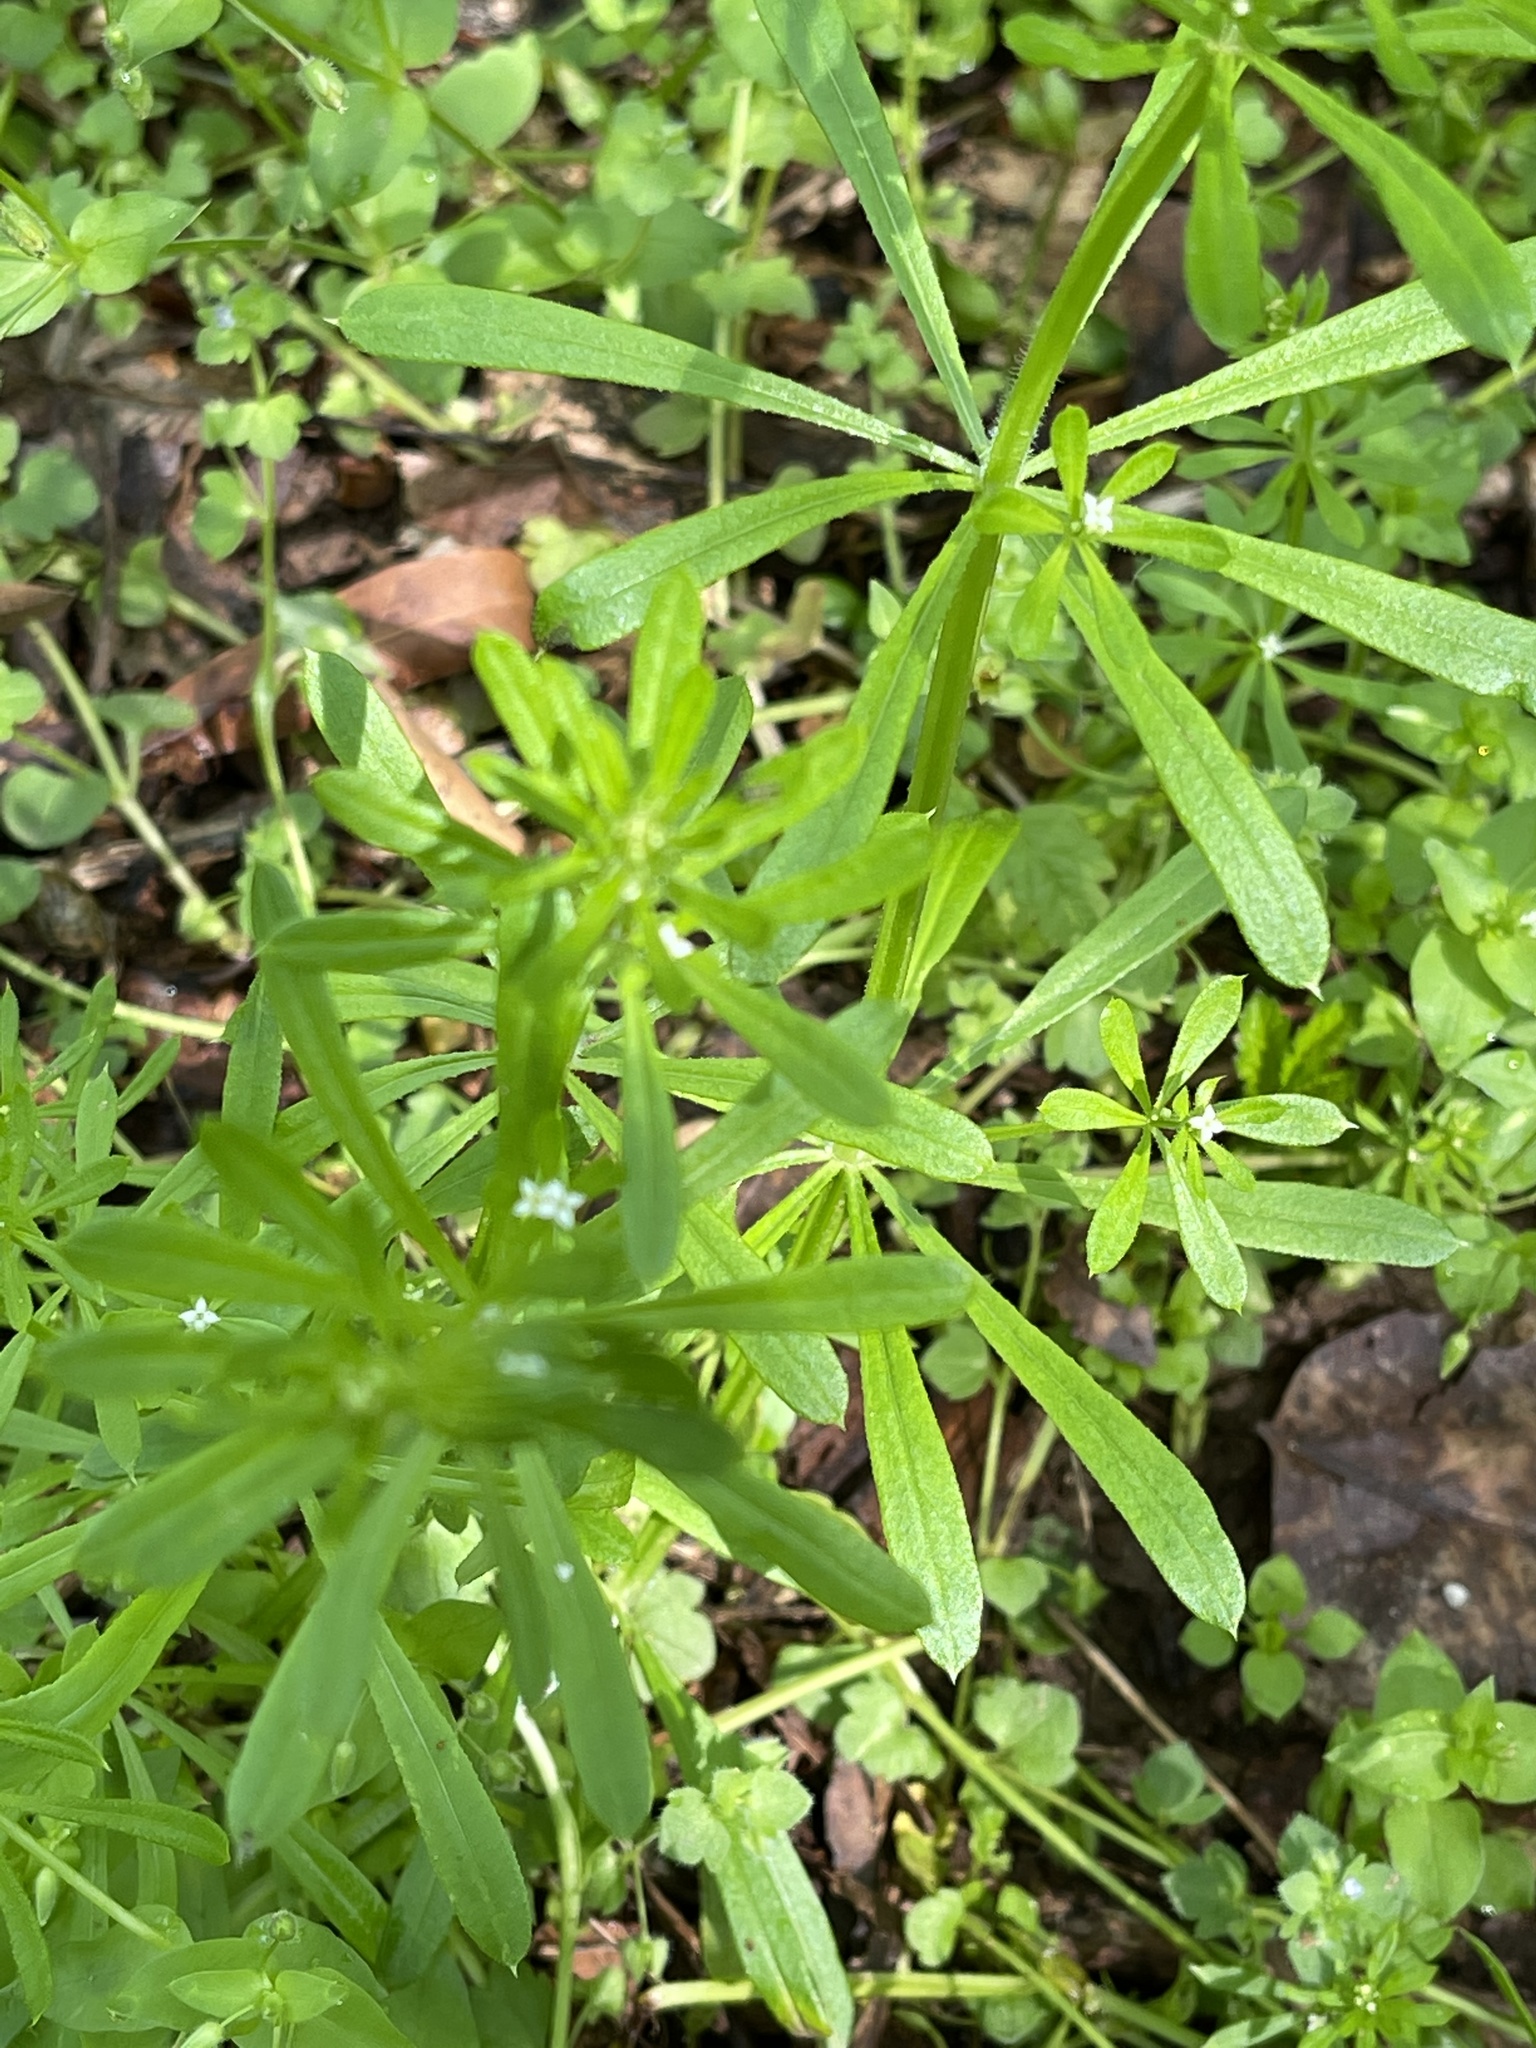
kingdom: Plantae
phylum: Tracheophyta
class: Magnoliopsida
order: Gentianales
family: Rubiaceae
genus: Galium
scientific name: Galium aparine
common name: Cleavers
